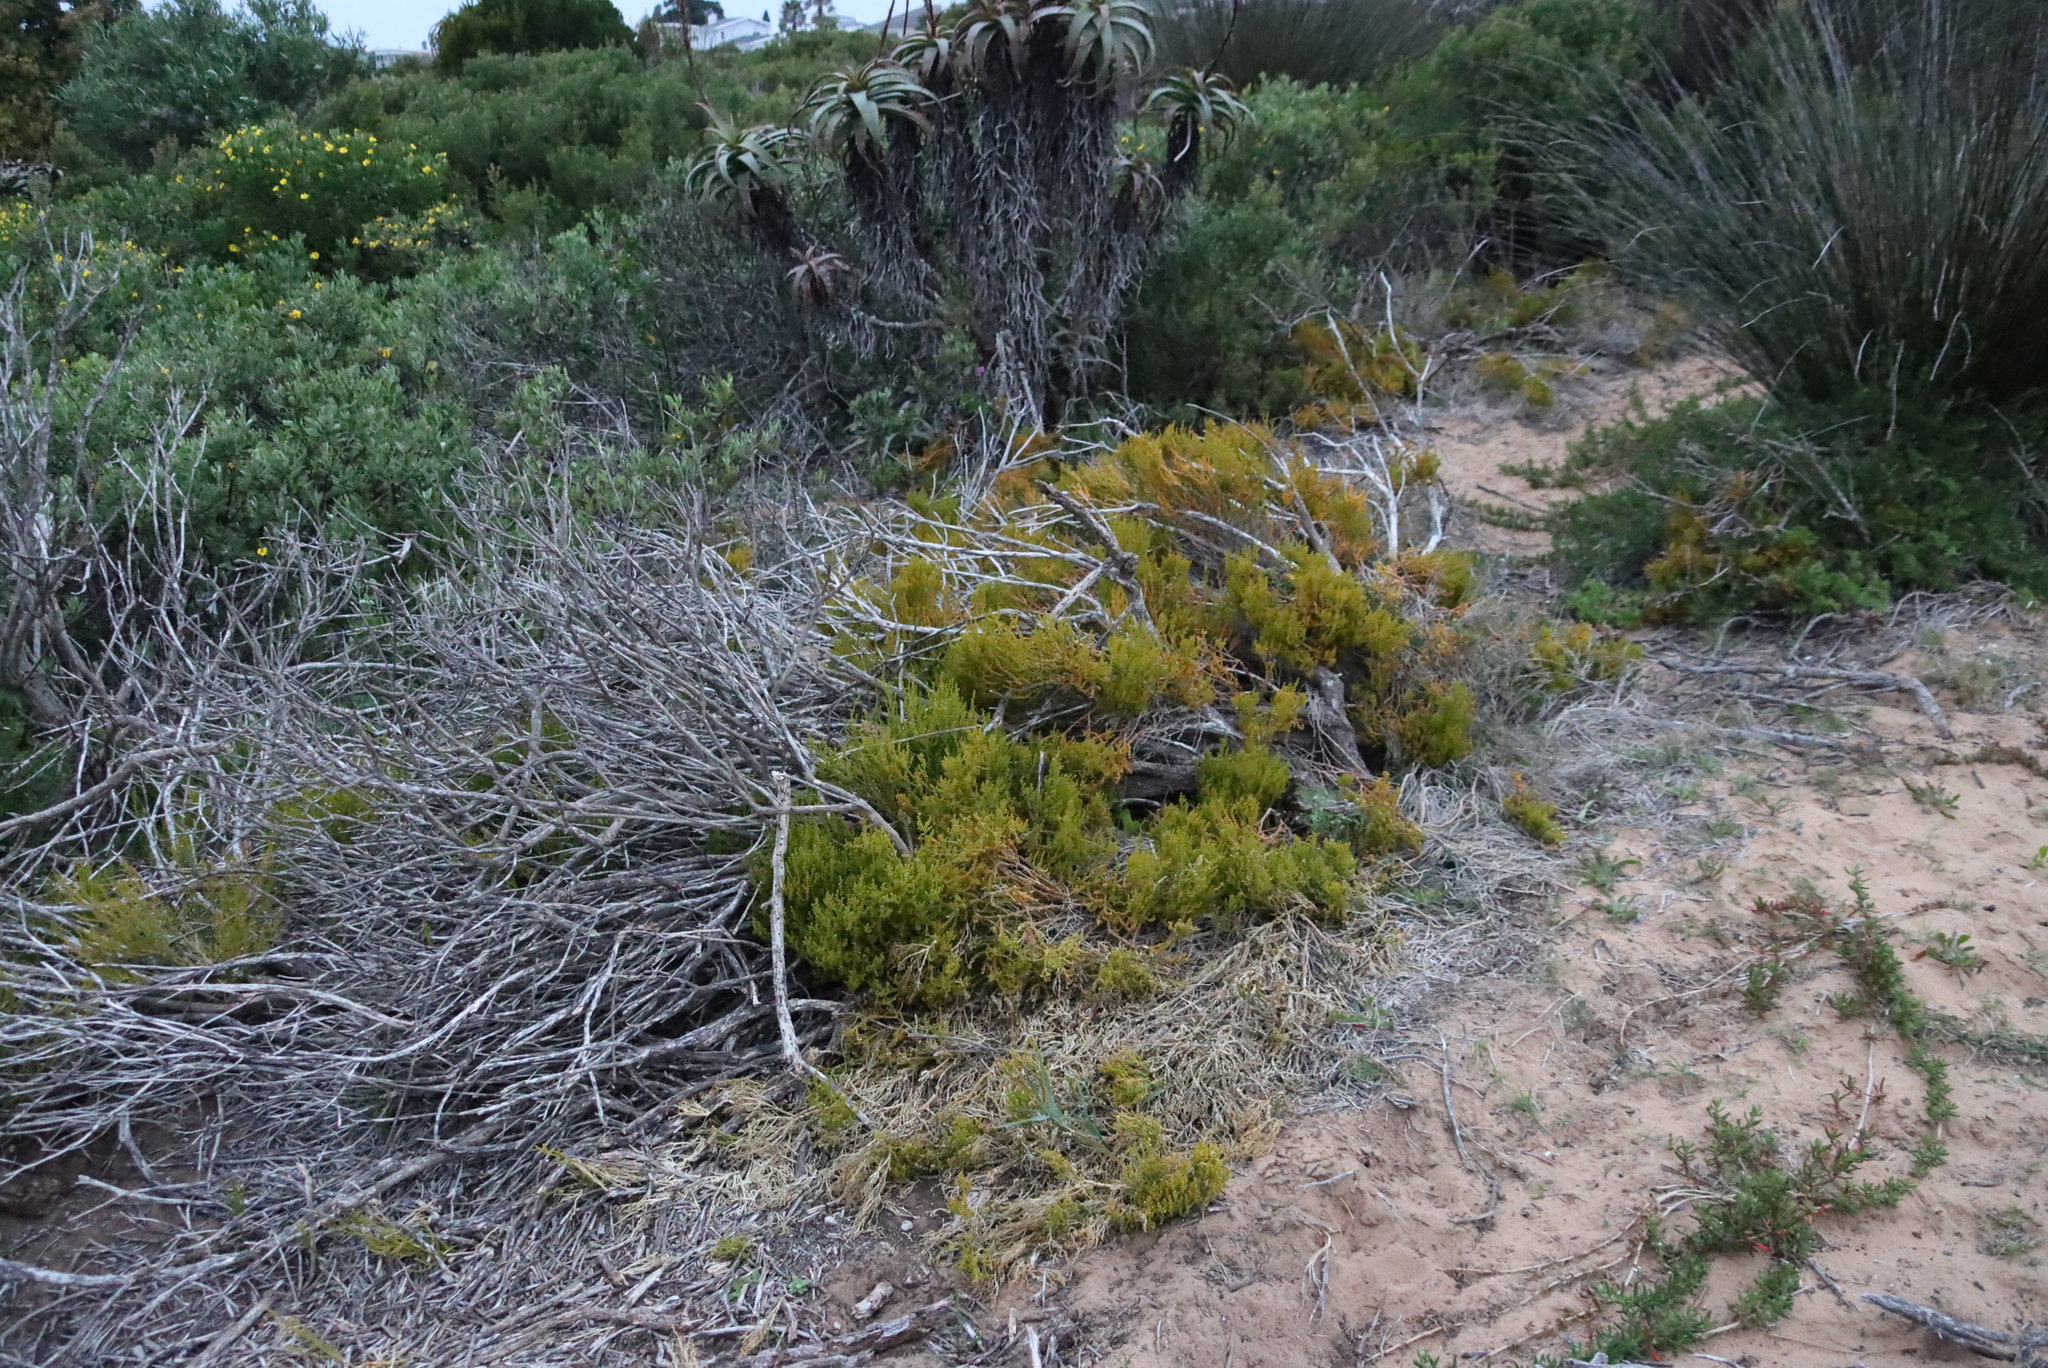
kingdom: Plantae
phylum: Tracheophyta
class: Magnoliopsida
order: Santalales
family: Thesiaceae
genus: Thesium
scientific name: Thesium fragile
